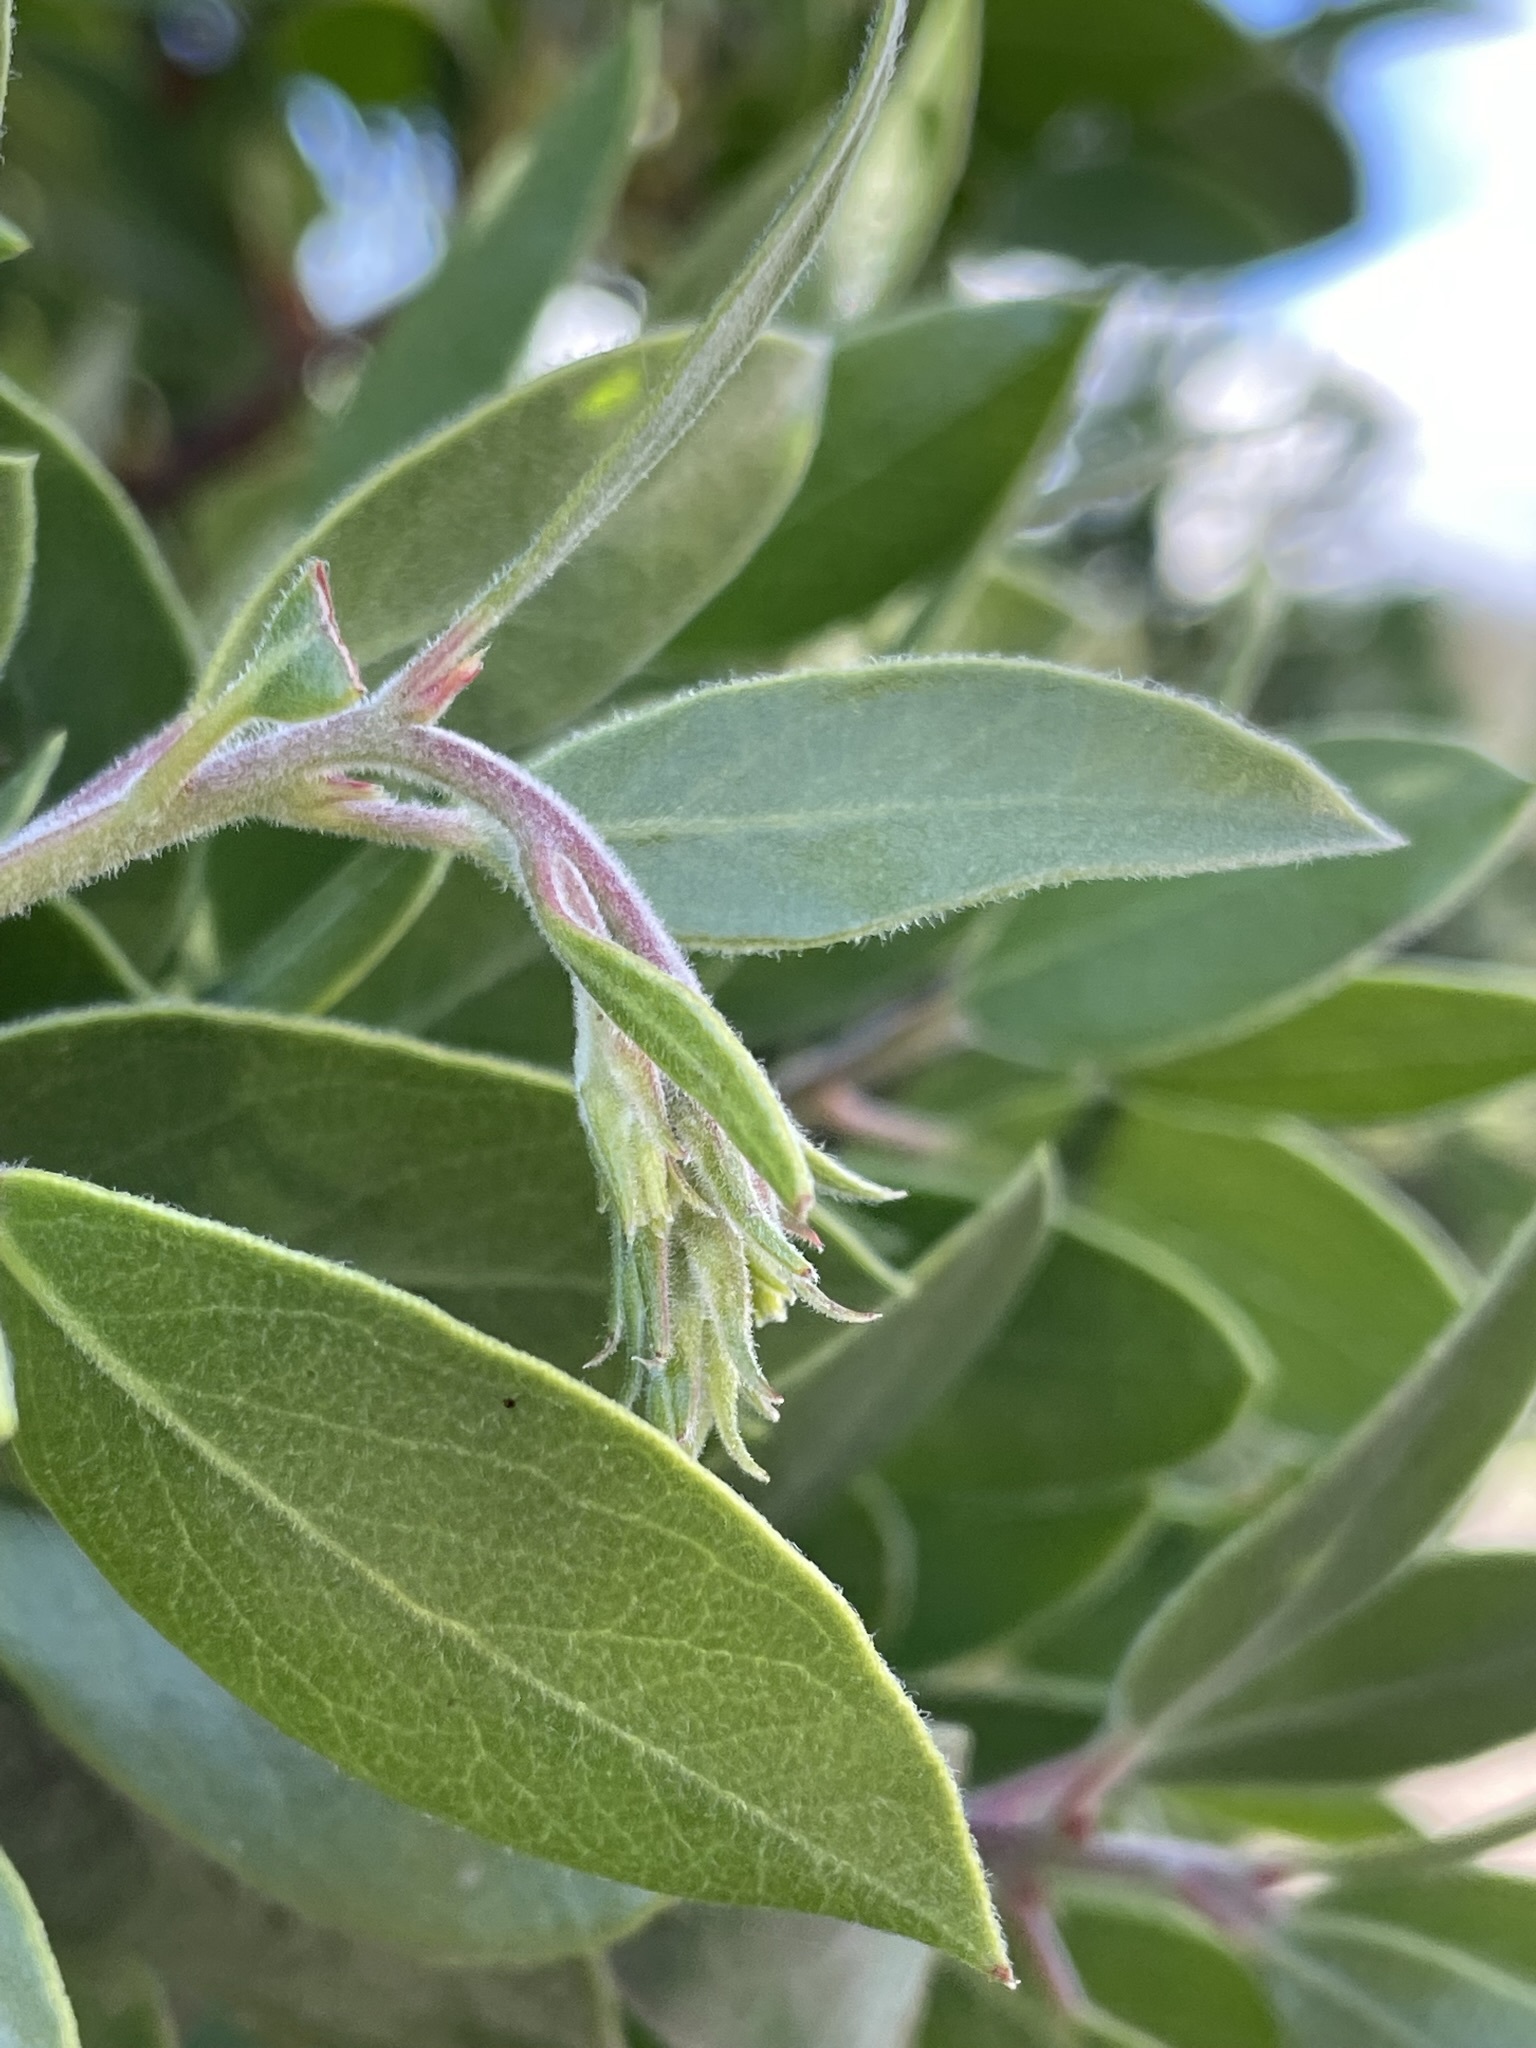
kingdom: Plantae
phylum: Tracheophyta
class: Magnoliopsida
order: Ericales
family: Ericaceae
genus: Arctostaphylos
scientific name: Arctostaphylos manzanita
